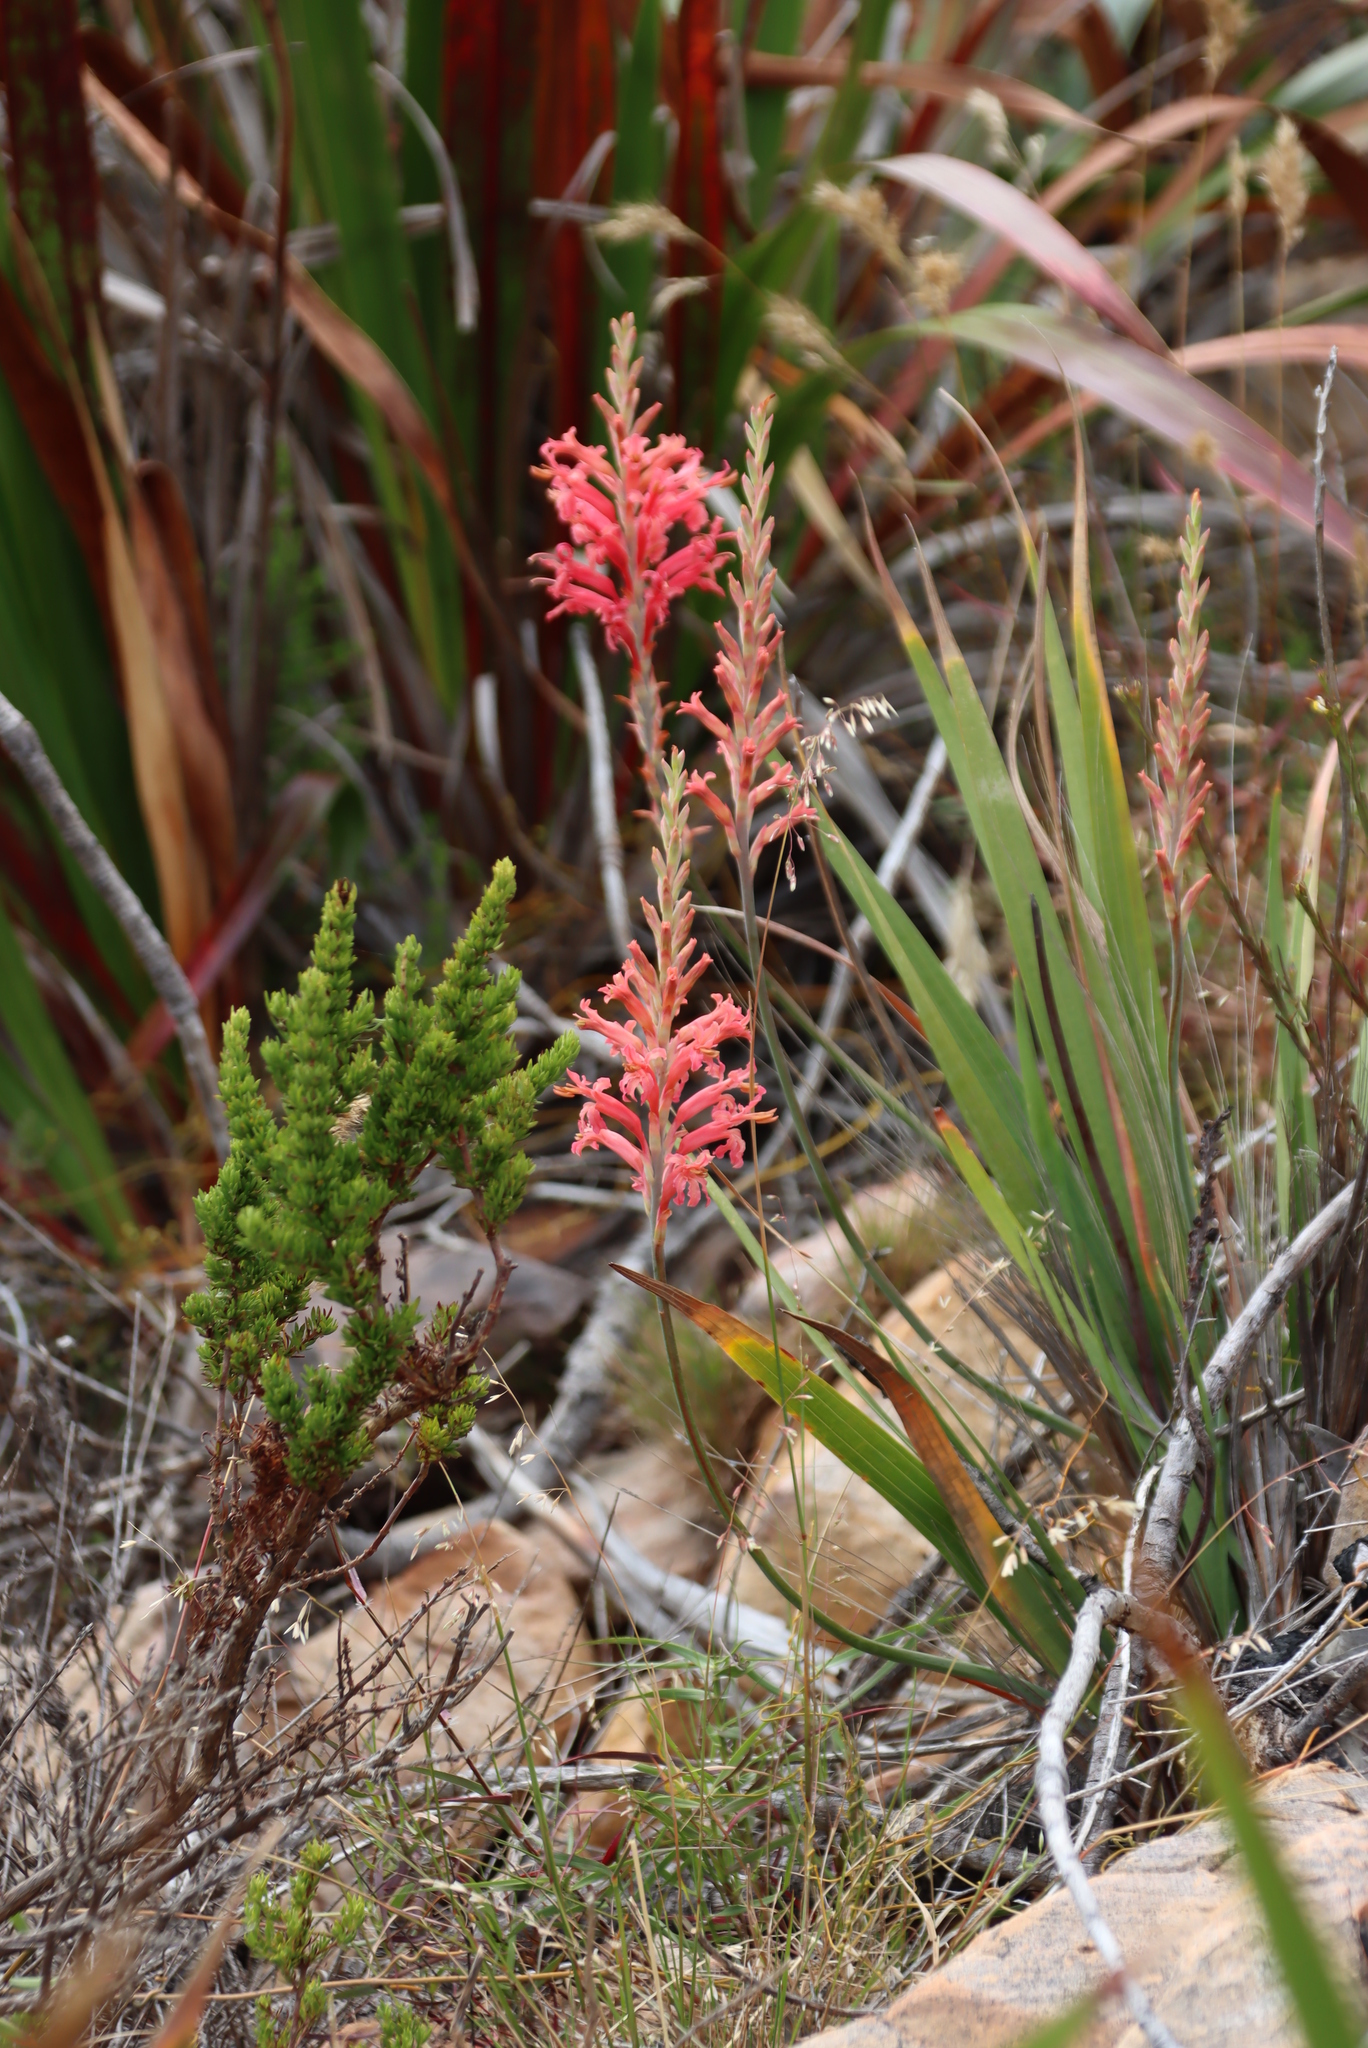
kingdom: Plantae
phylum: Tracheophyta
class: Liliopsida
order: Asparagales
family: Iridaceae
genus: Tritoniopsis
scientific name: Tritoniopsis antholyza
